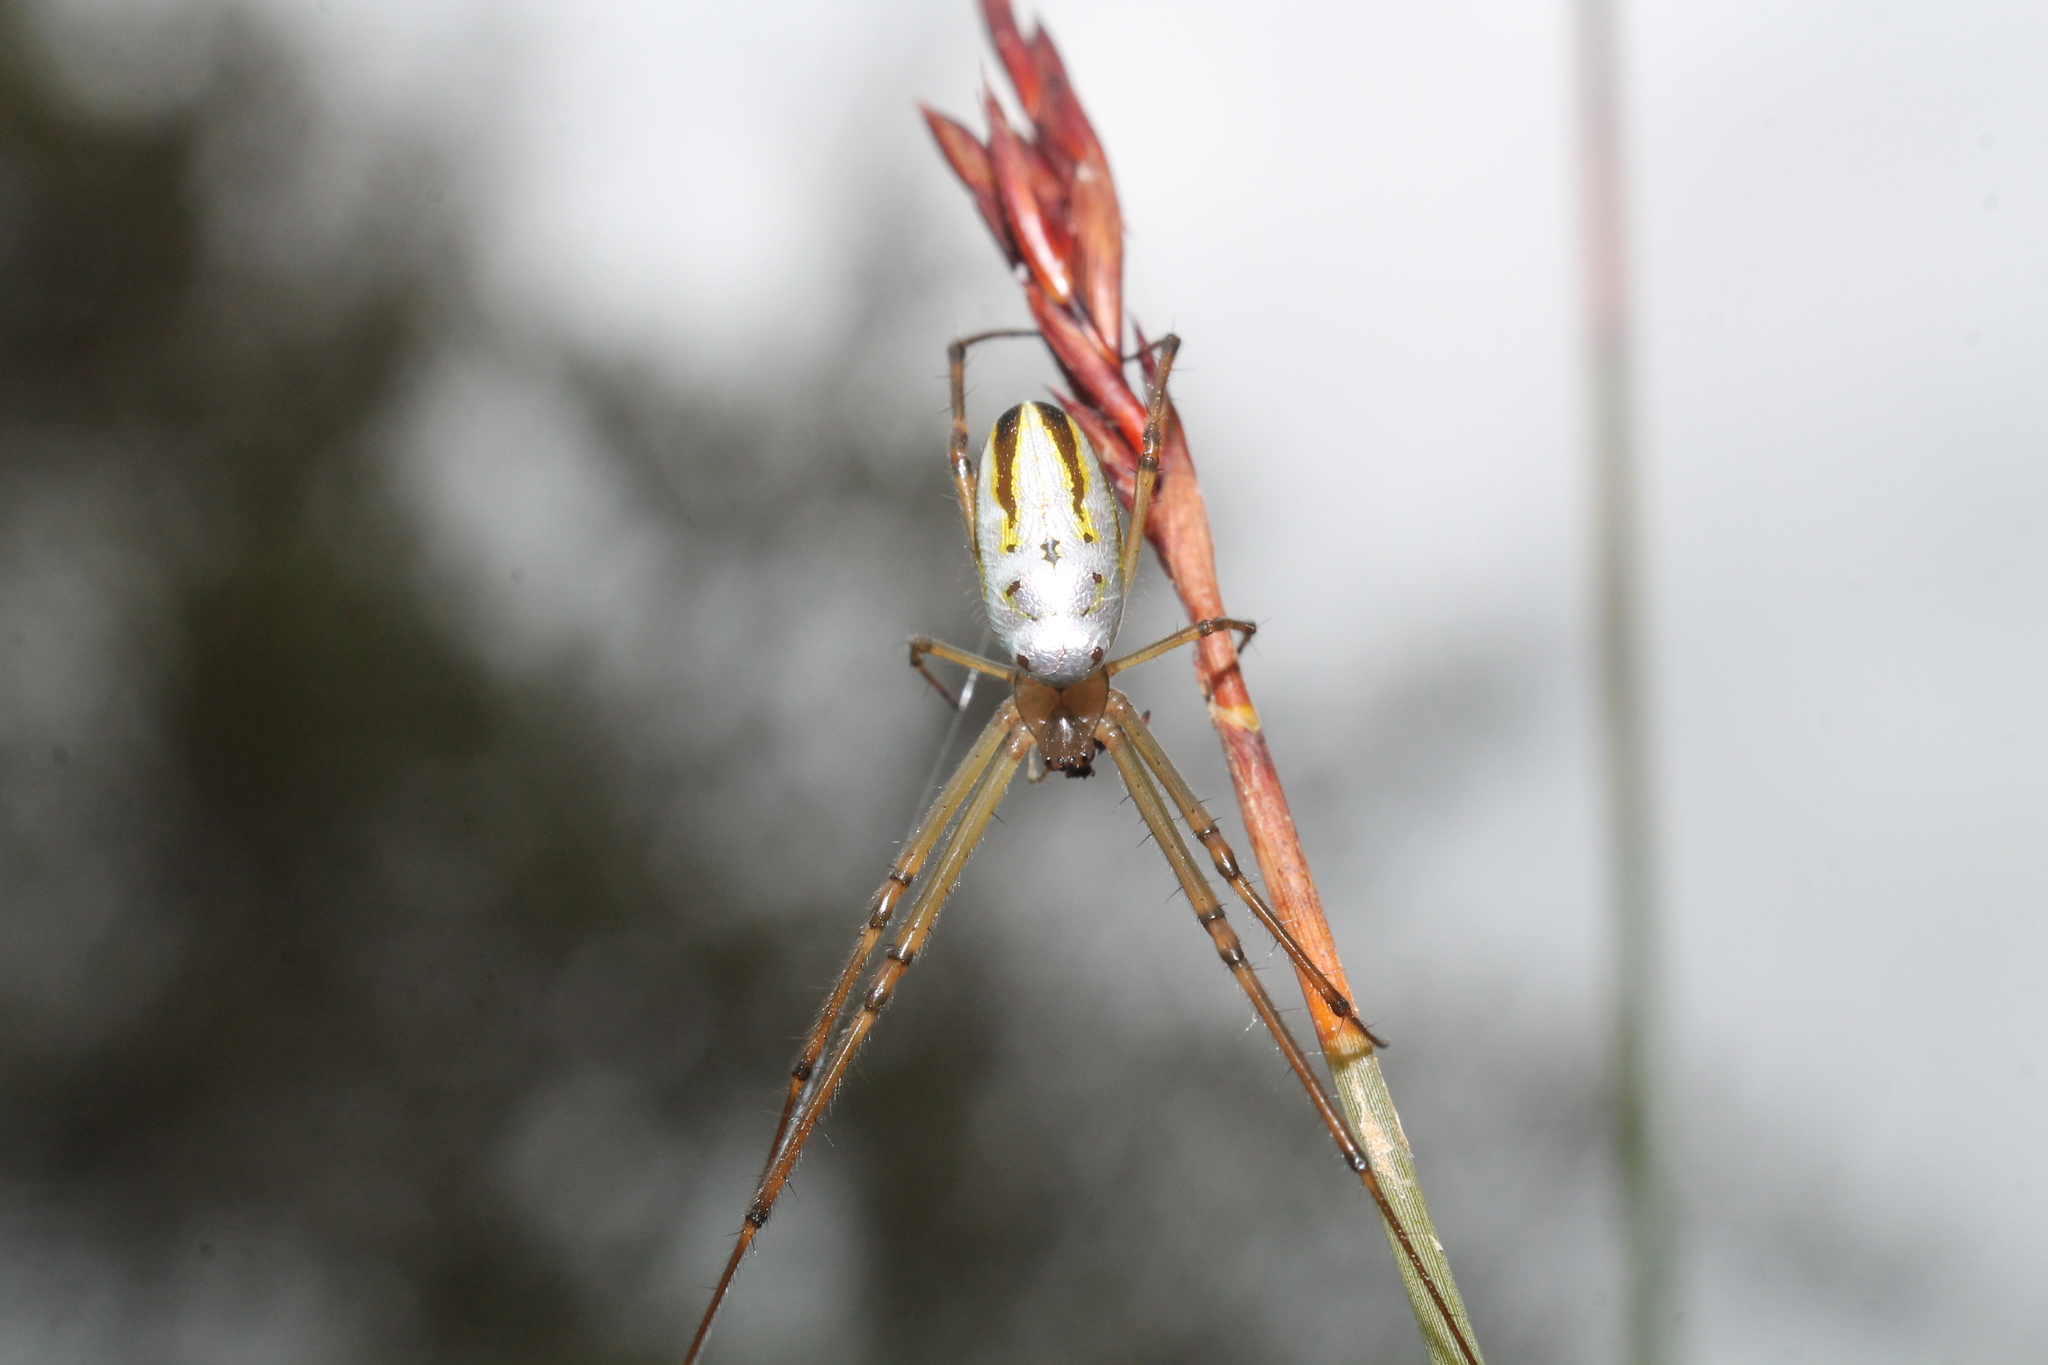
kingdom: Animalia
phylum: Arthropoda
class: Arachnida
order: Araneae
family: Tetragnathidae
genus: Leucauge
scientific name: Leucauge dromedaria
